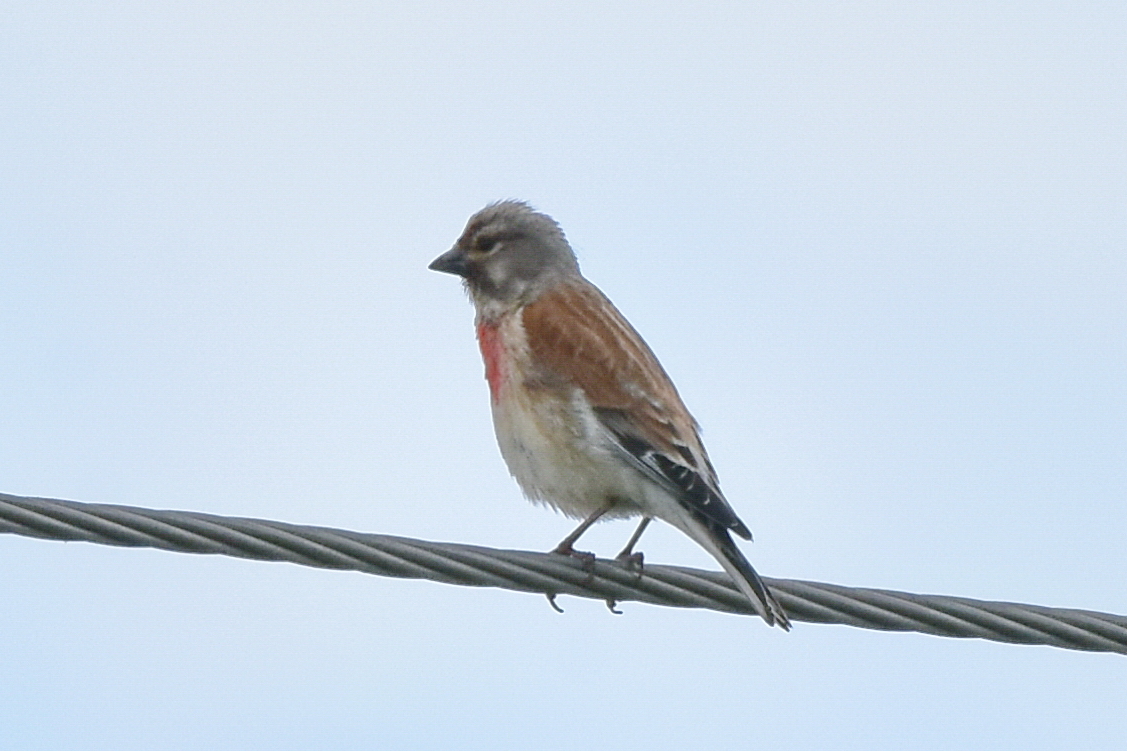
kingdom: Animalia
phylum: Chordata
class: Aves
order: Passeriformes
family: Fringillidae
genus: Linaria
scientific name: Linaria cannabina
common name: Common linnet
